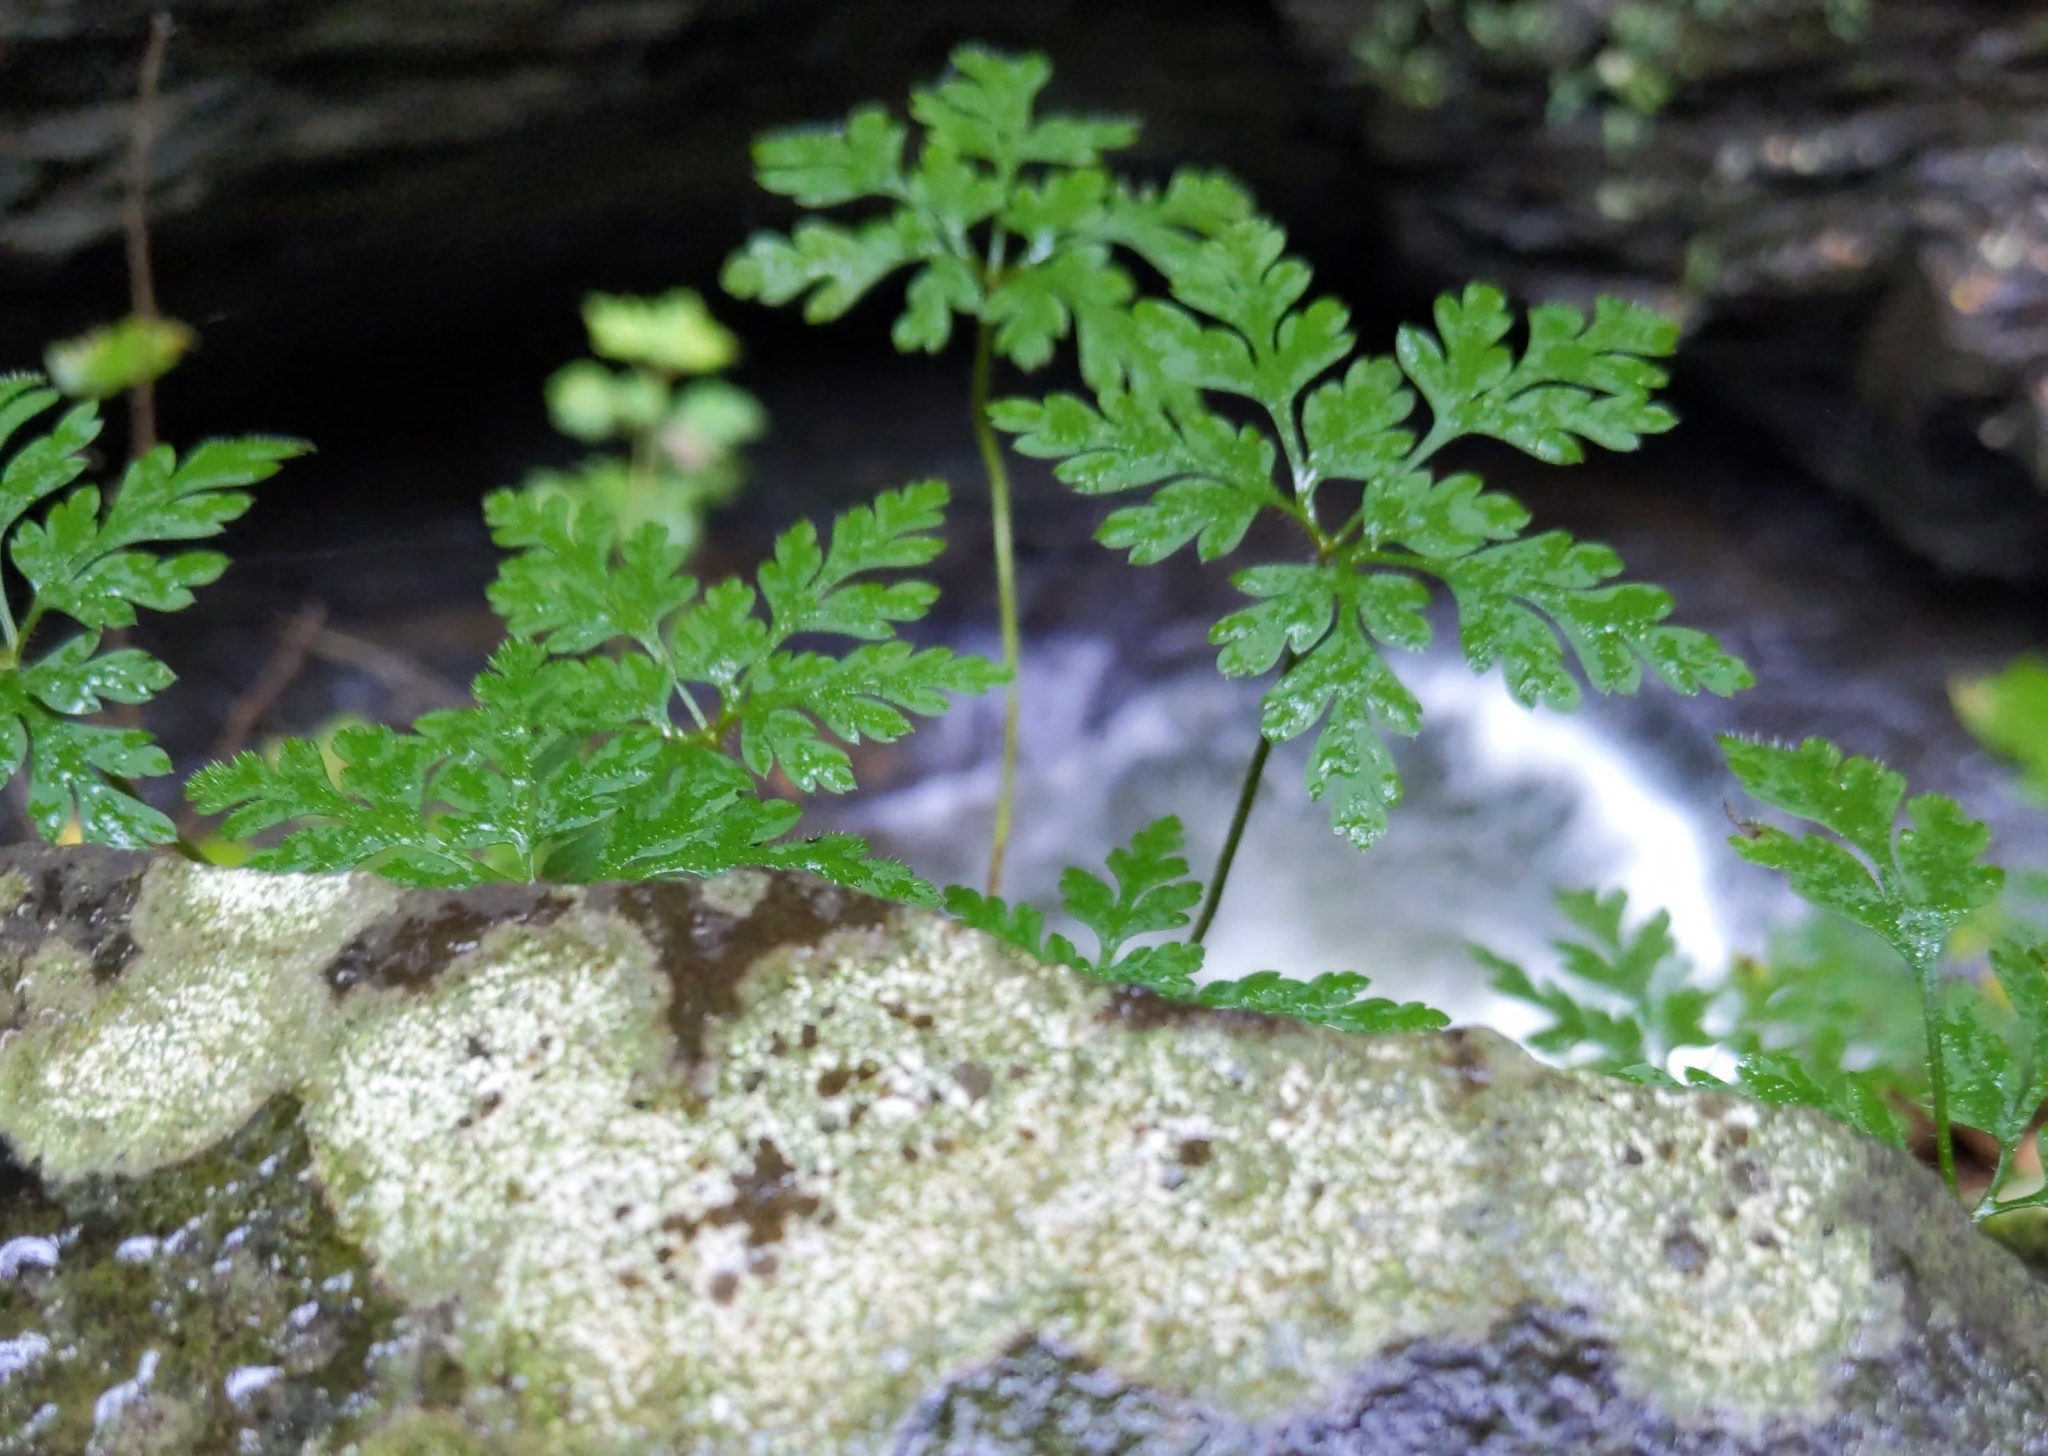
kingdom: Plantae
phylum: Tracheophyta
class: Magnoliopsida
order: Geraniales
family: Geraniaceae
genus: Geranium
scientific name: Geranium robertianum
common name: Herb-robert
